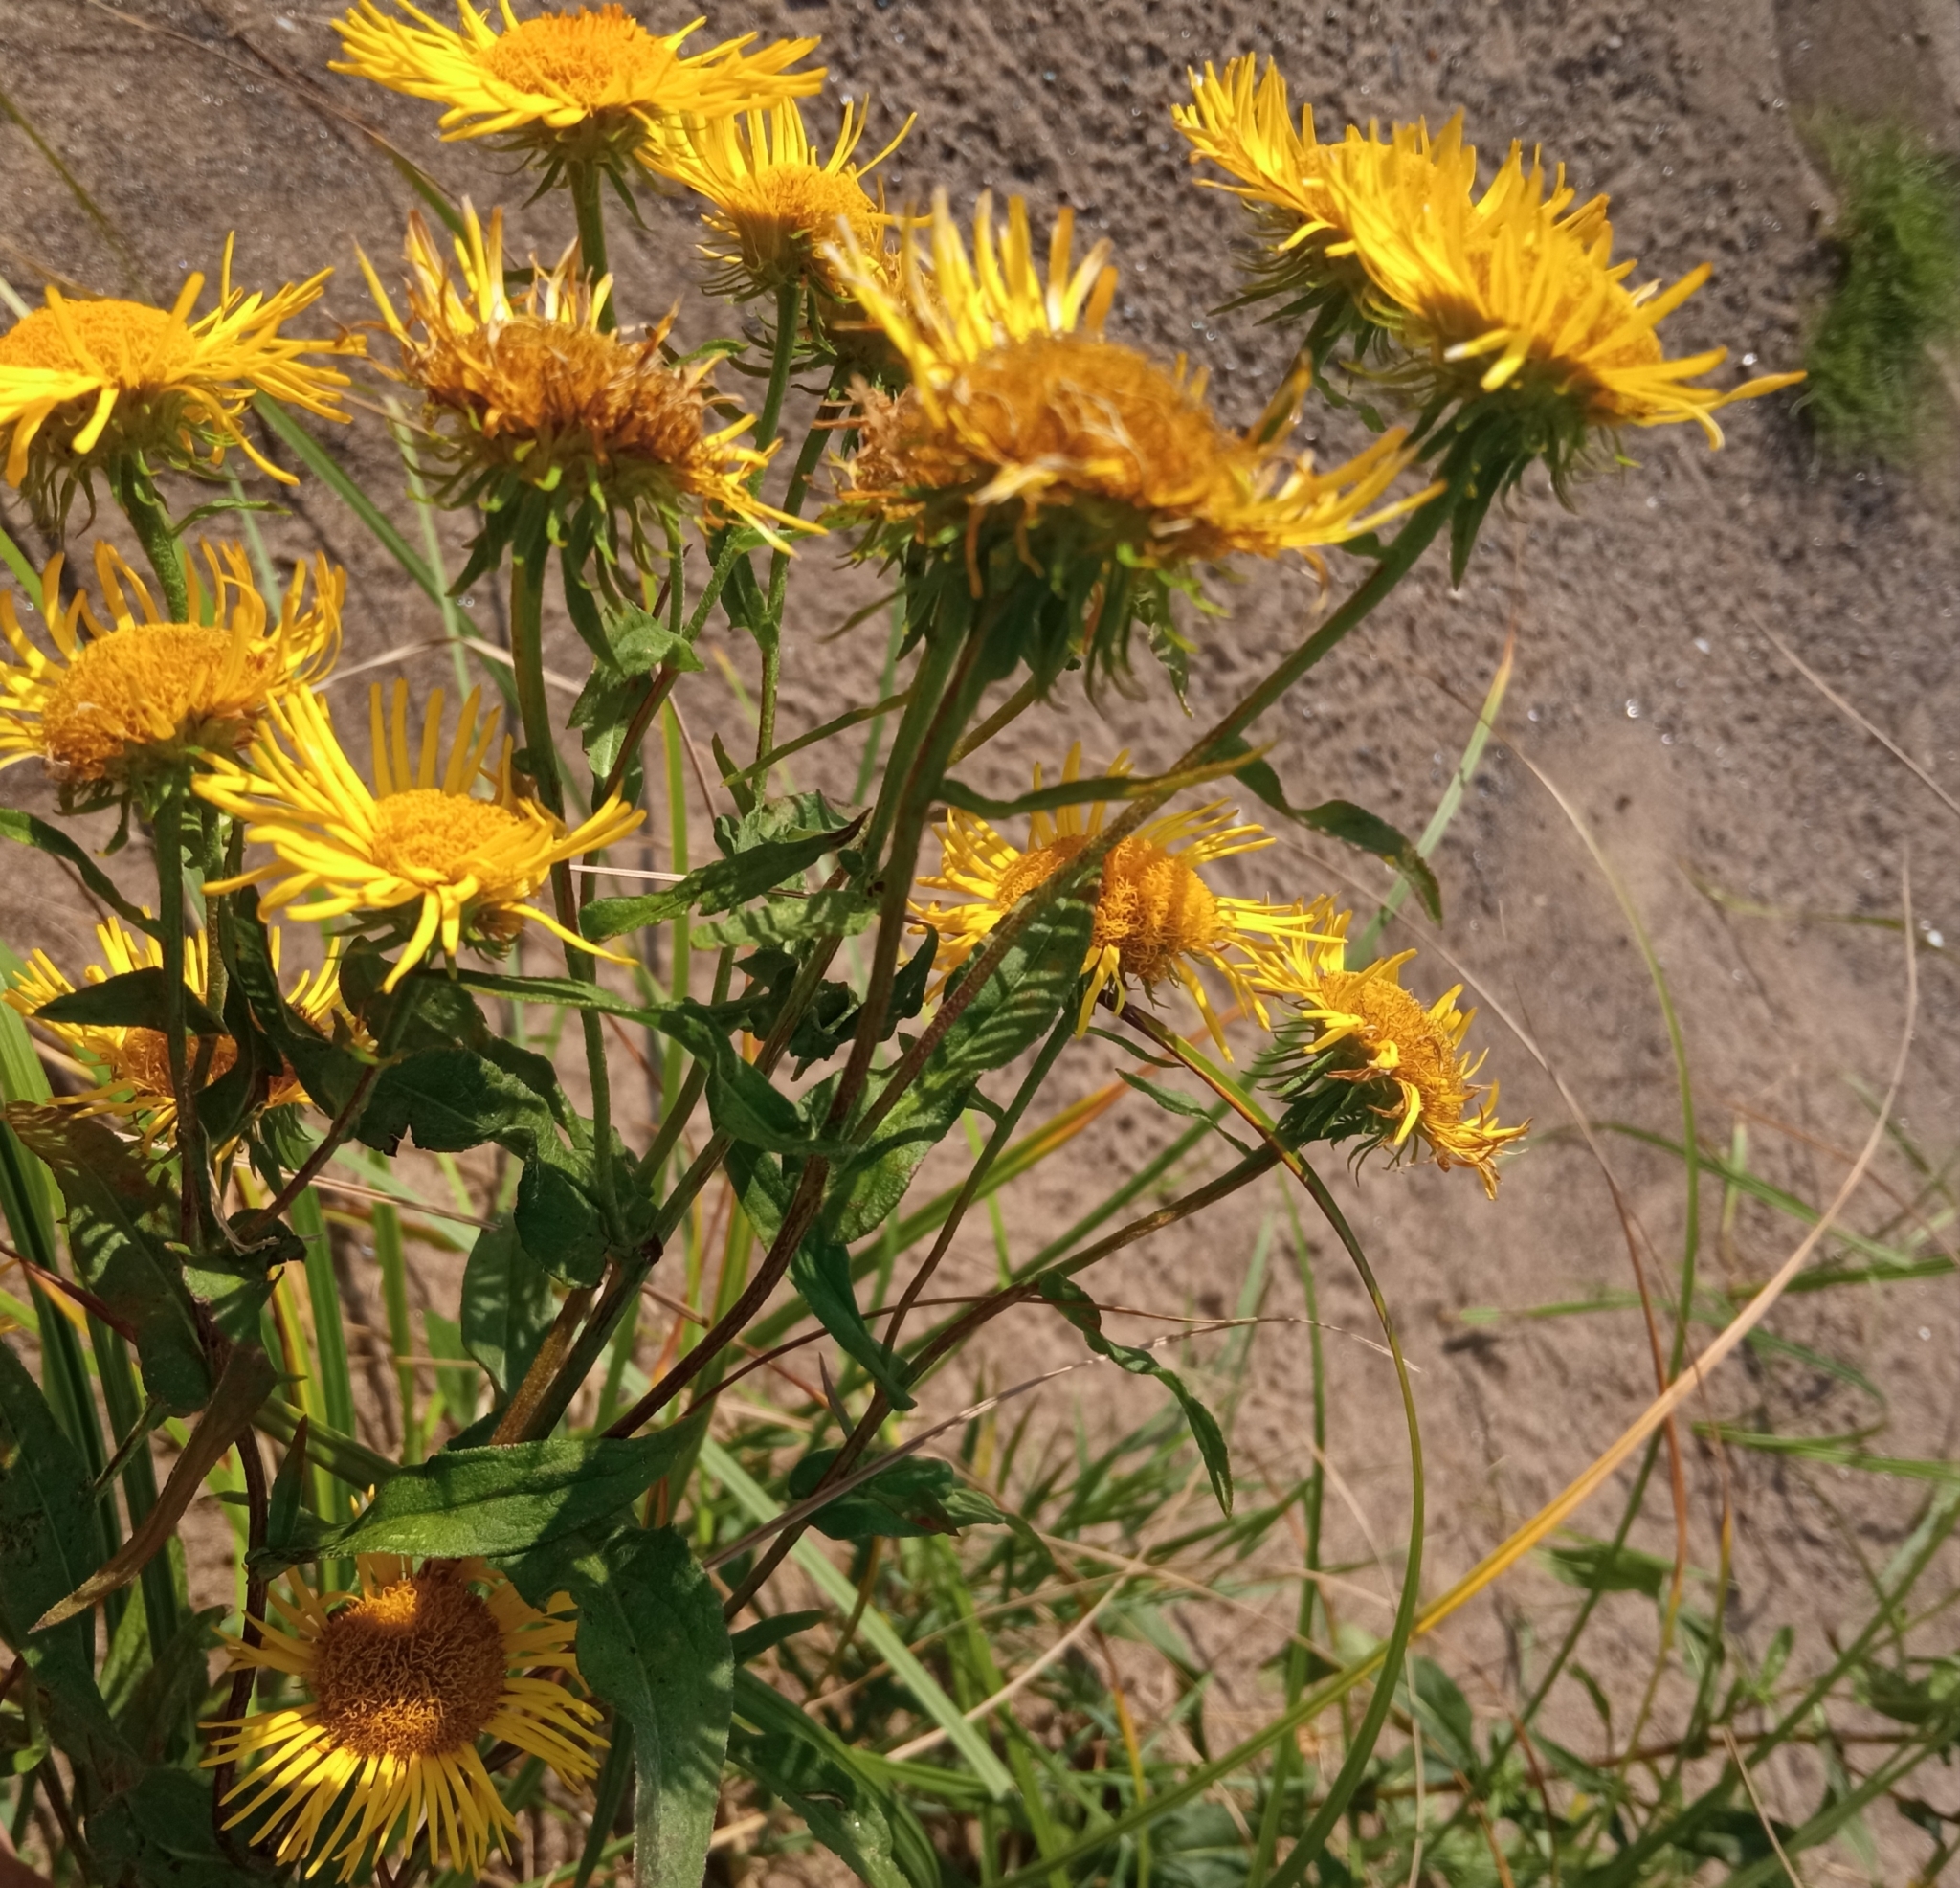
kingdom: Plantae
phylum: Tracheophyta
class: Magnoliopsida
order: Asterales
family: Asteraceae
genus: Pentanema
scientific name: Pentanema britannicum
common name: British elecampane
